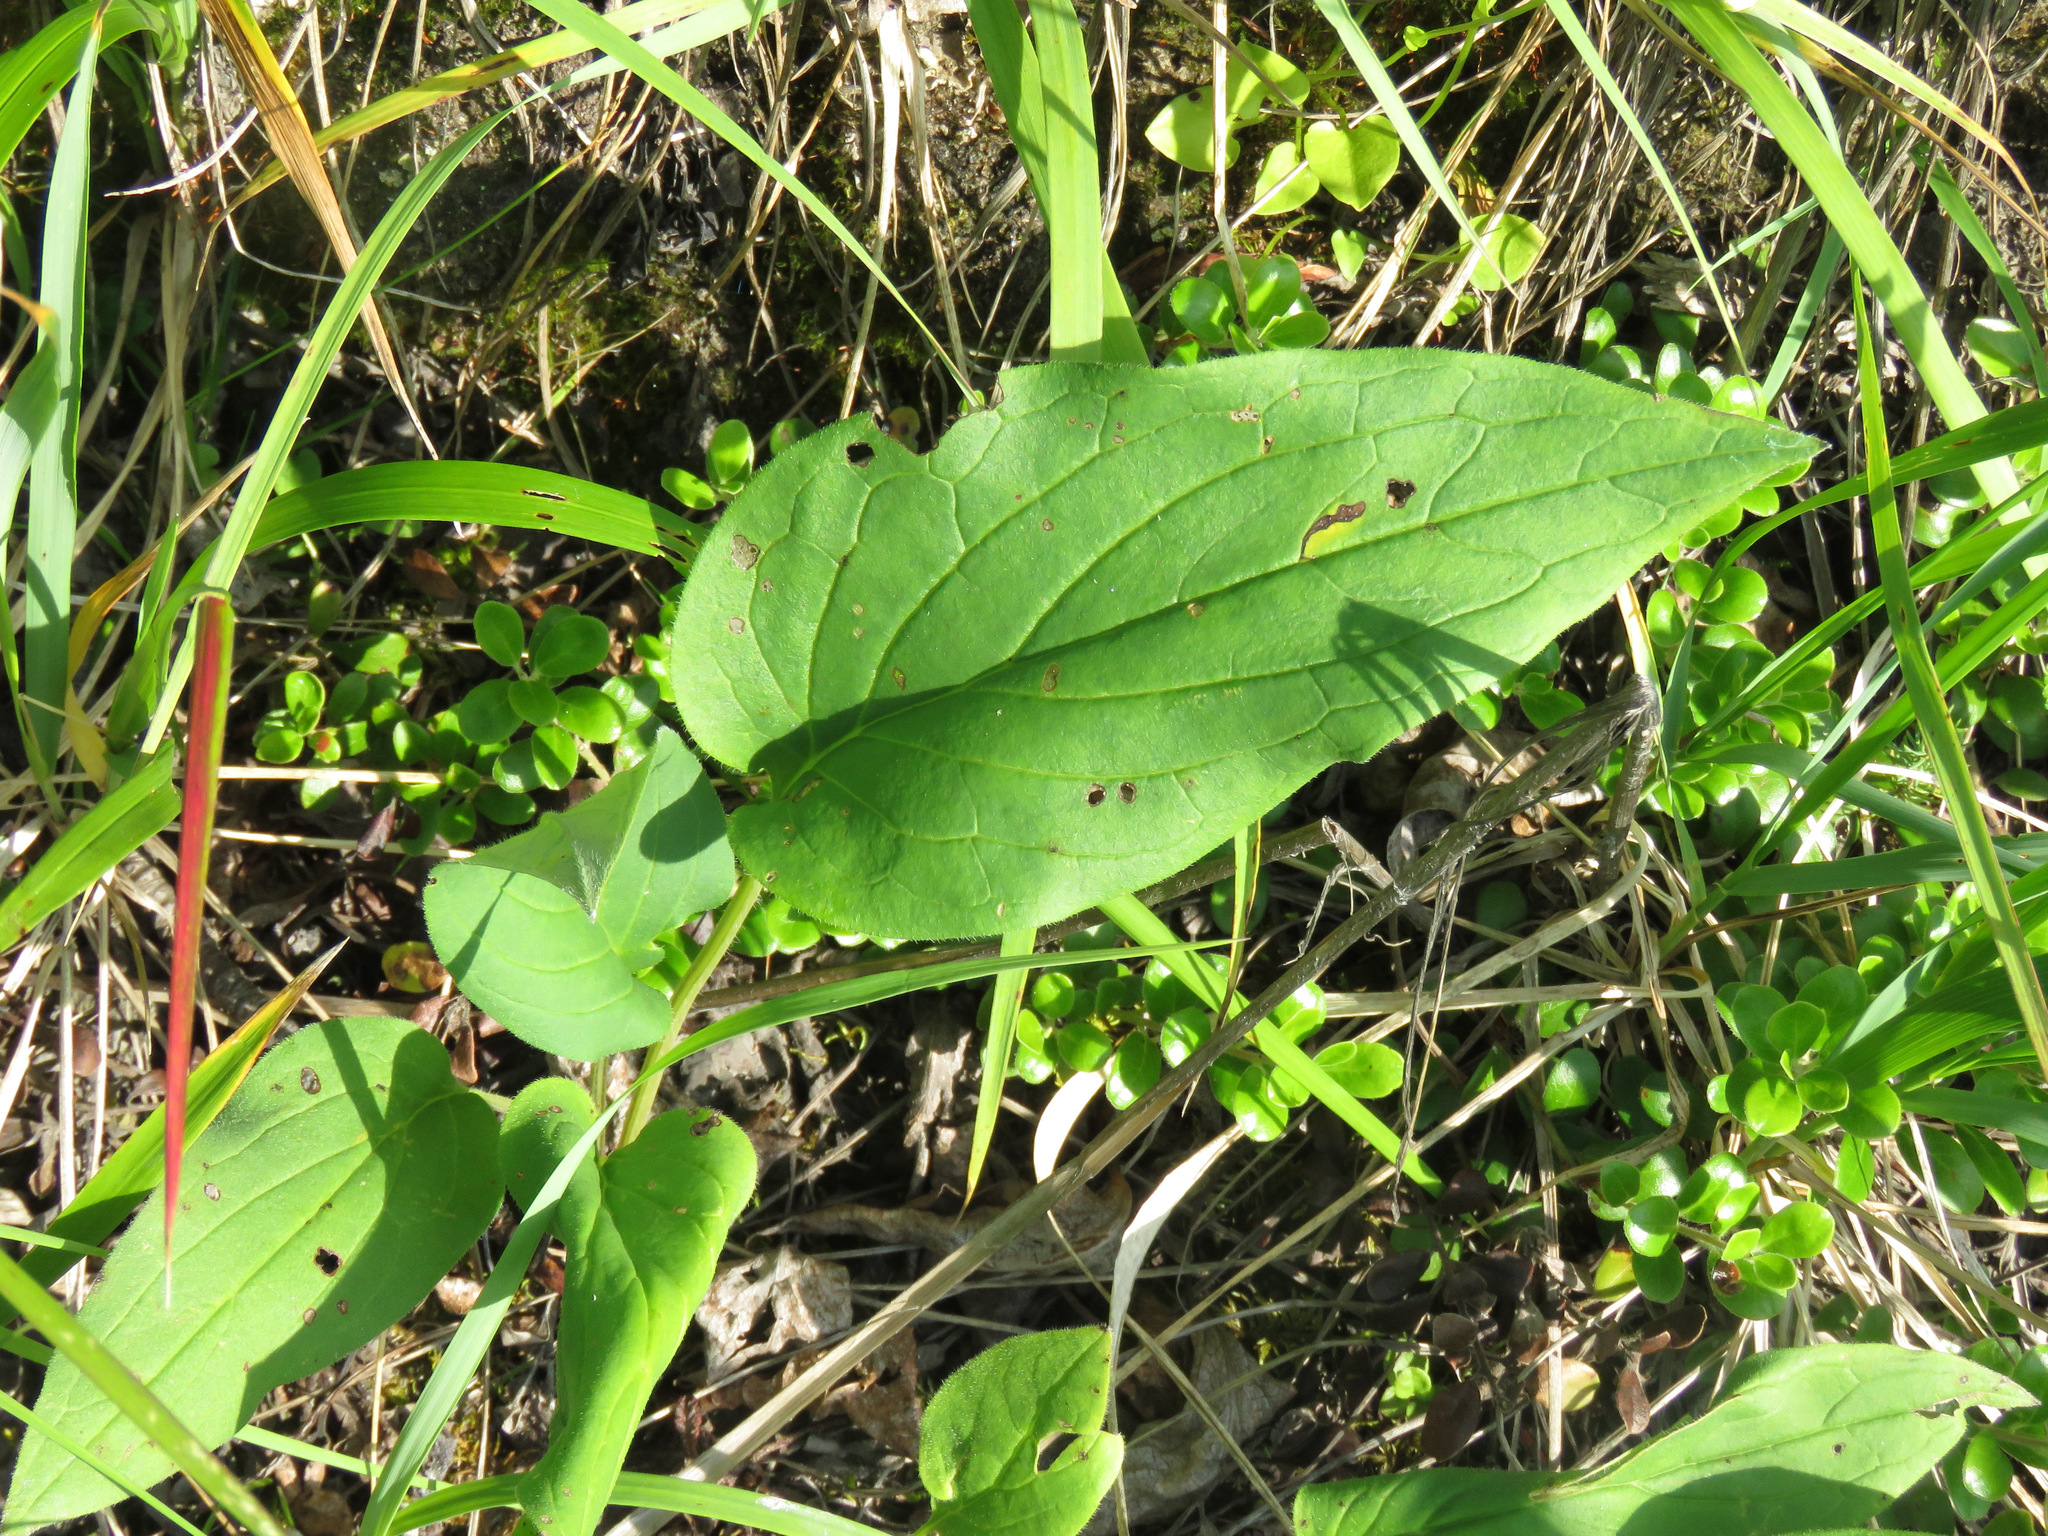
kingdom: Plantae
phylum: Tracheophyta
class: Magnoliopsida
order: Boraginales
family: Boraginaceae
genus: Mertensia
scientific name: Mertensia paniculata
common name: Panicled bluebells
